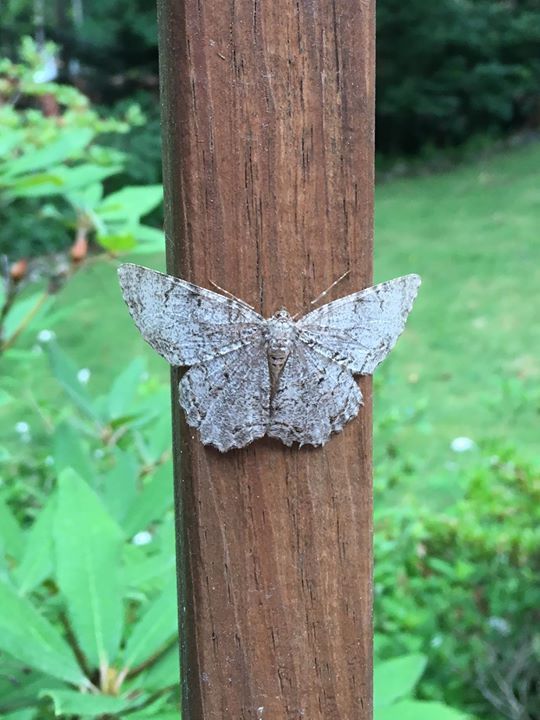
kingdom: Animalia
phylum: Arthropoda
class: Insecta
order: Lepidoptera
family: Geometridae
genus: Epimecis
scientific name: Epimecis hortaria
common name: Tulip-tree beauty
